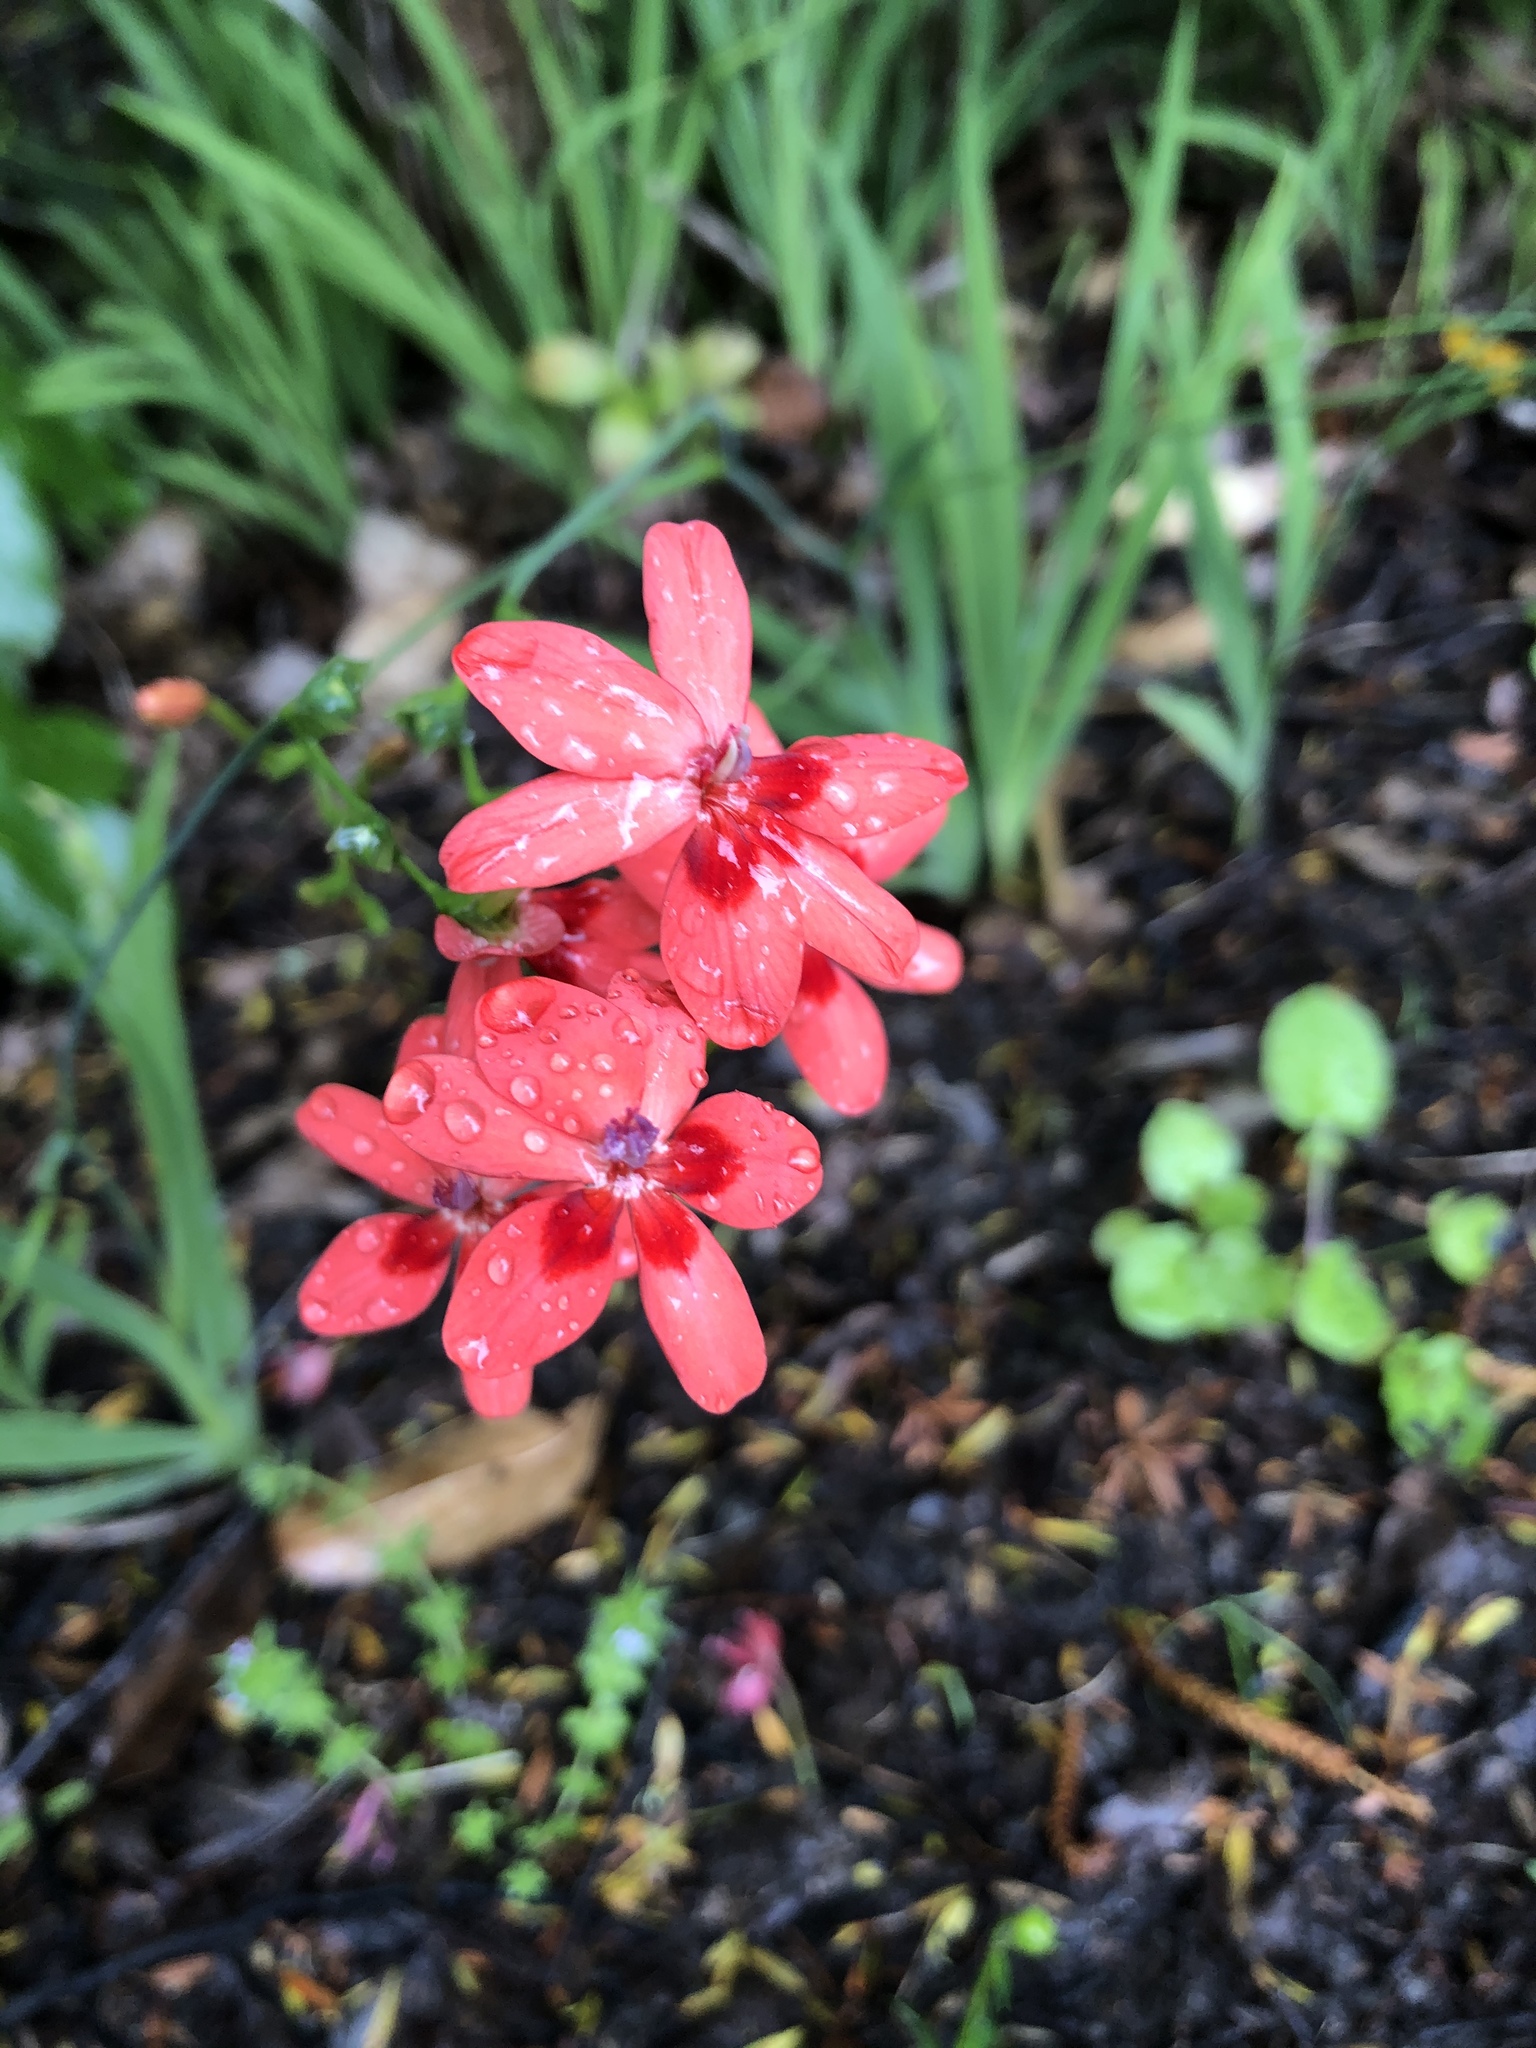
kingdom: Plantae
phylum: Tracheophyta
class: Liliopsida
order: Asparagales
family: Iridaceae
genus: Freesia
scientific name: Freesia laxa
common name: False freesia
